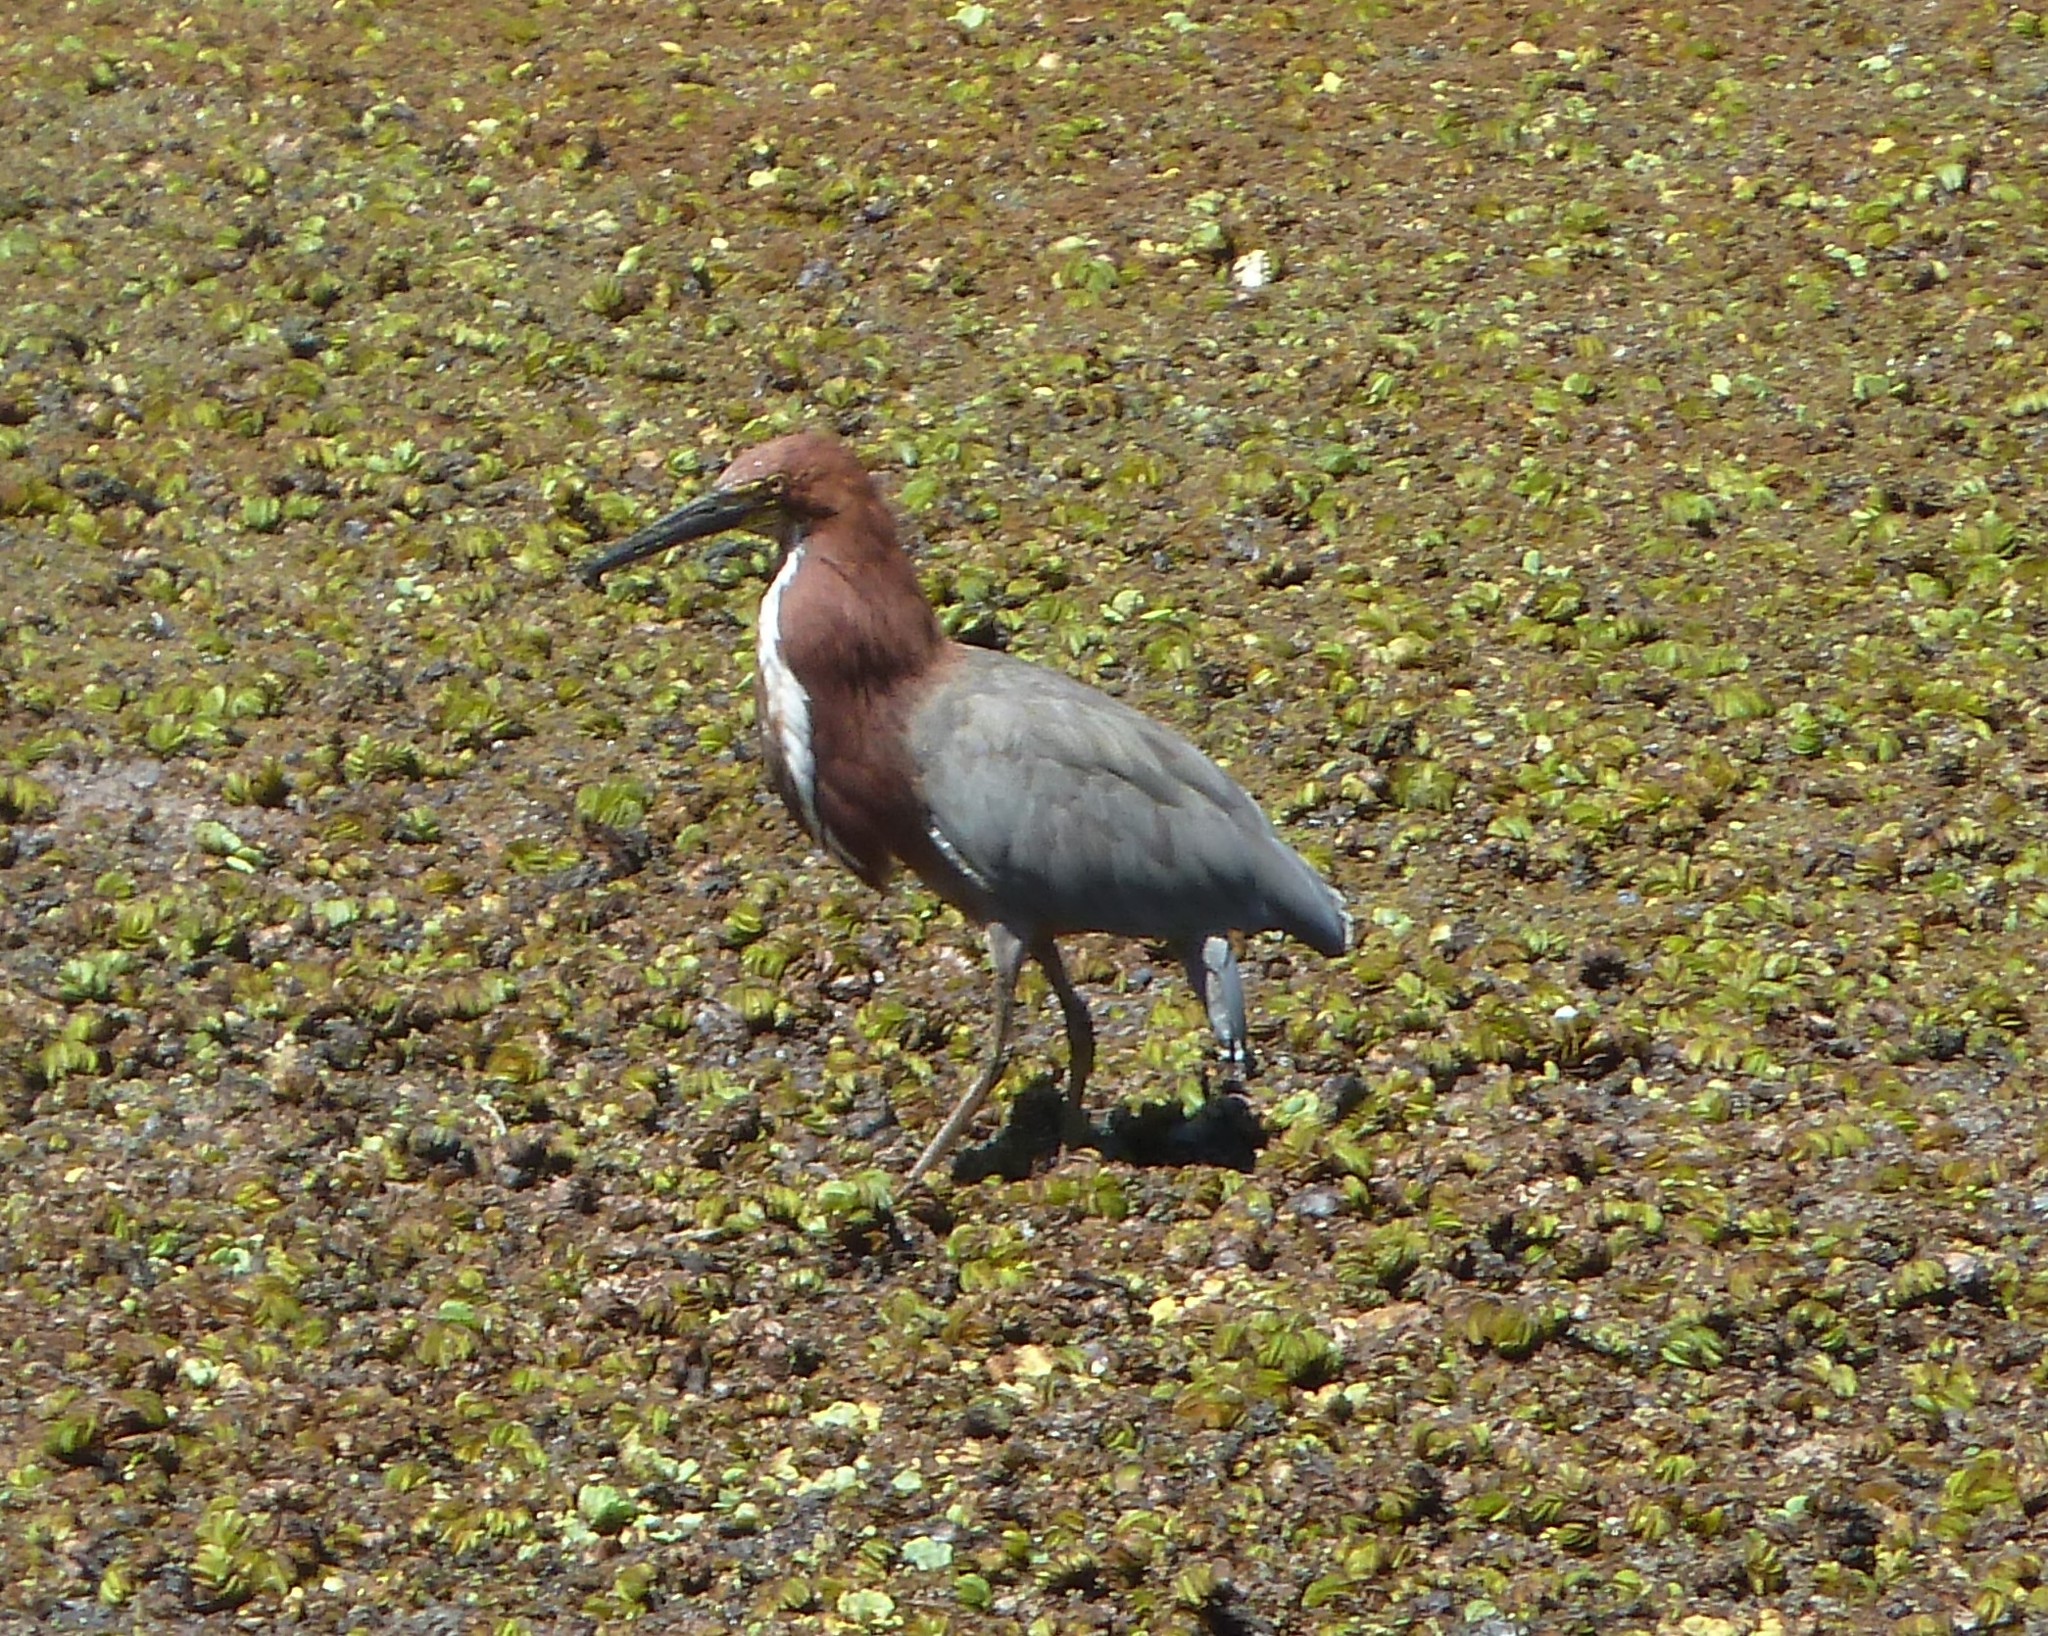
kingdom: Animalia
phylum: Chordata
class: Aves
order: Pelecaniformes
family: Ardeidae
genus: Tigrisoma
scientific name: Tigrisoma lineatum
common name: Rufescent tiger-heron
